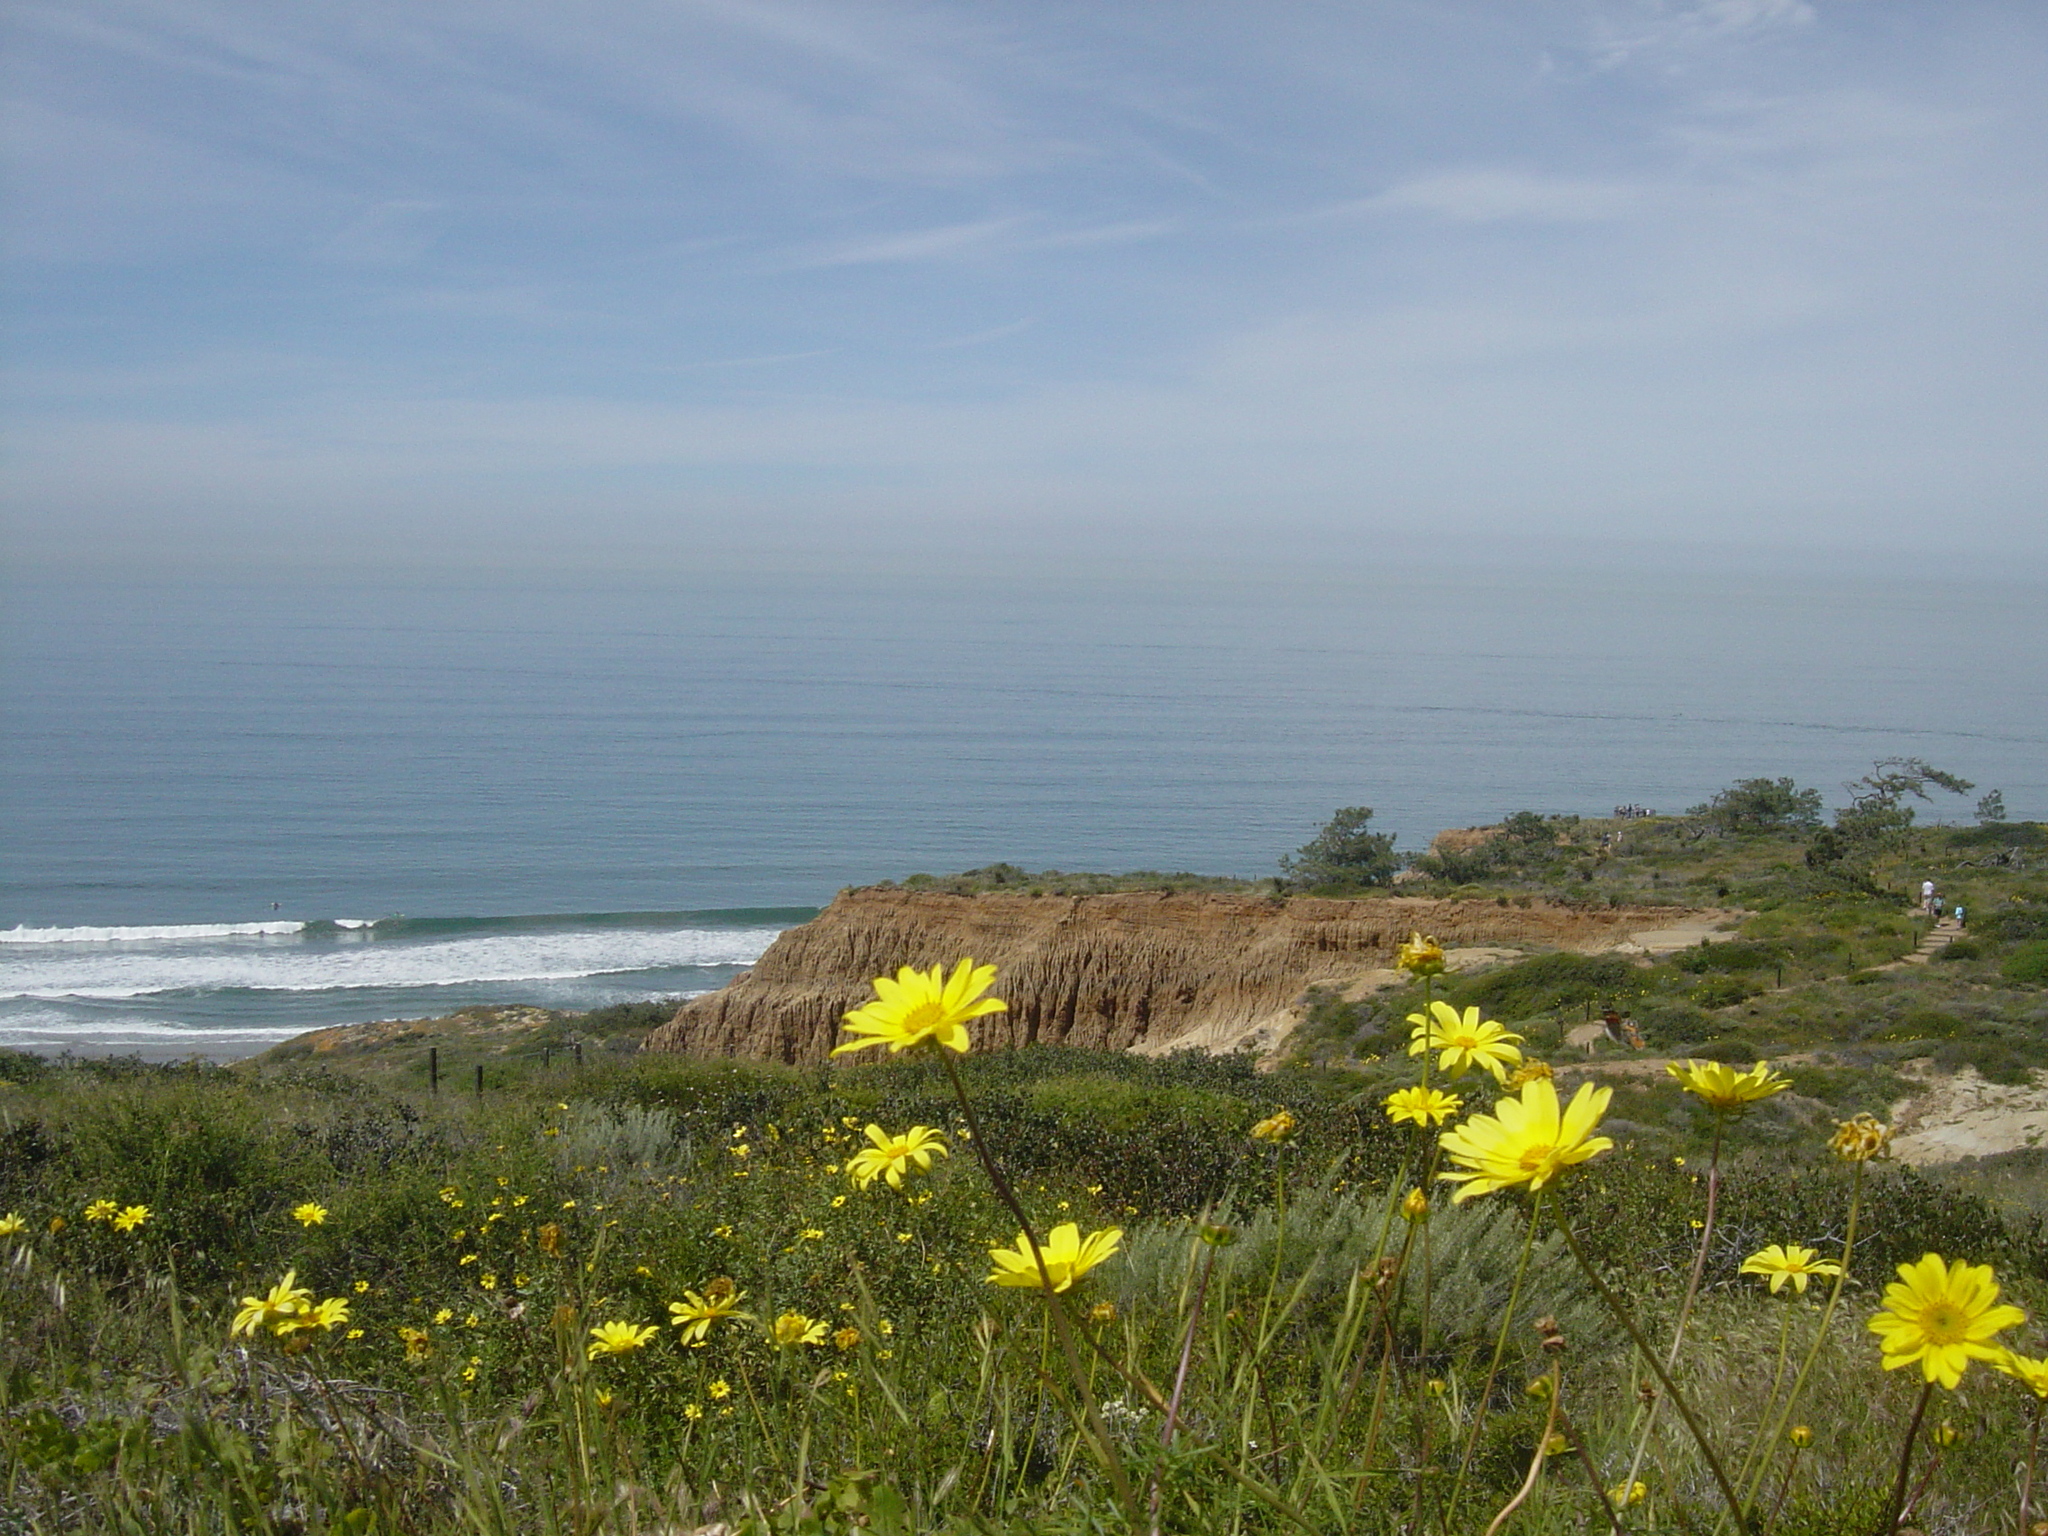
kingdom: Plantae
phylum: Tracheophyta
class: Magnoliopsida
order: Asterales
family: Asteraceae
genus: Coreopsis
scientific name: Coreopsis maritima
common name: Sea-dahlia
